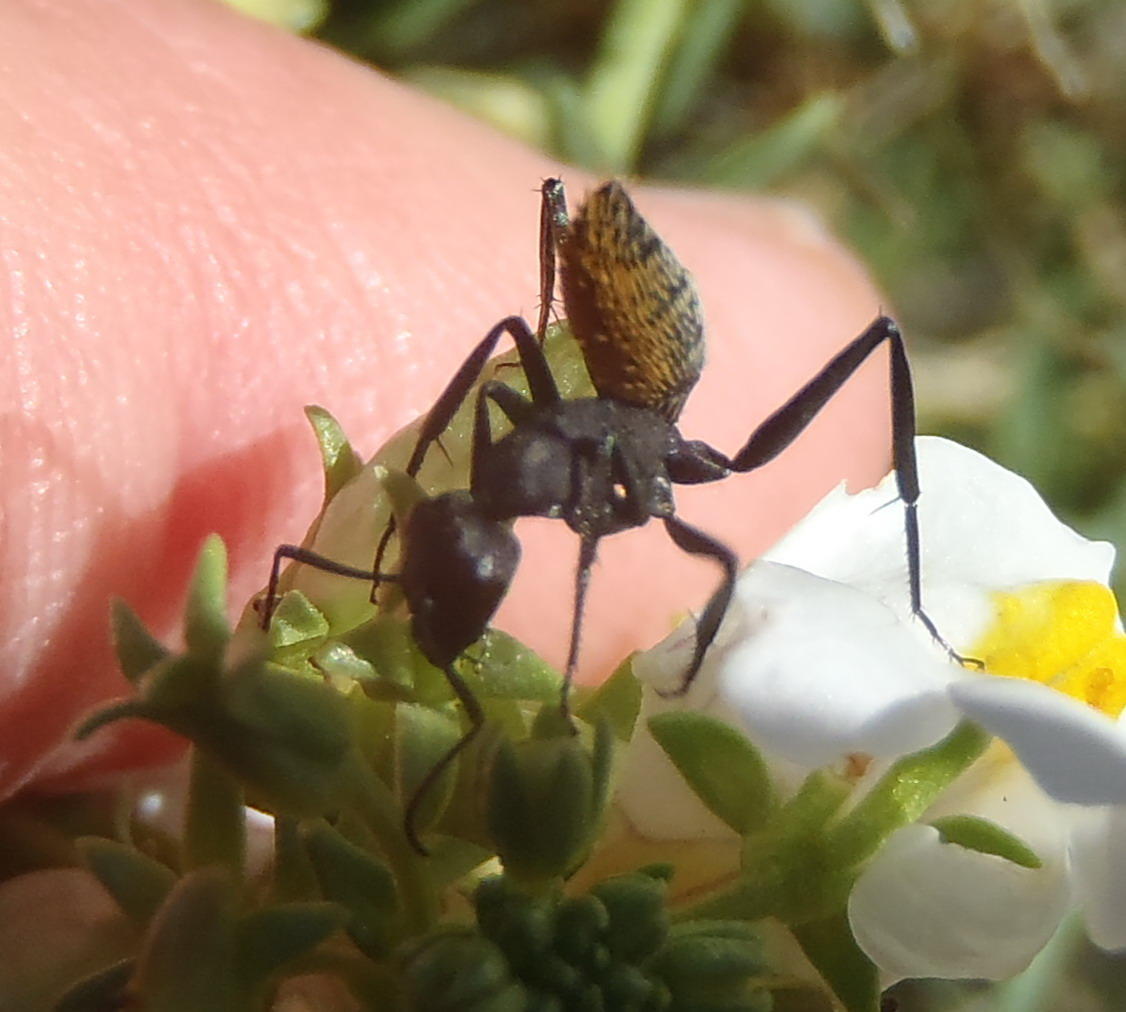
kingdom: Animalia
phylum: Arthropoda
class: Insecta
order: Hymenoptera
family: Formicidae
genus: Camponotus
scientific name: Camponotus fulvopilosus
